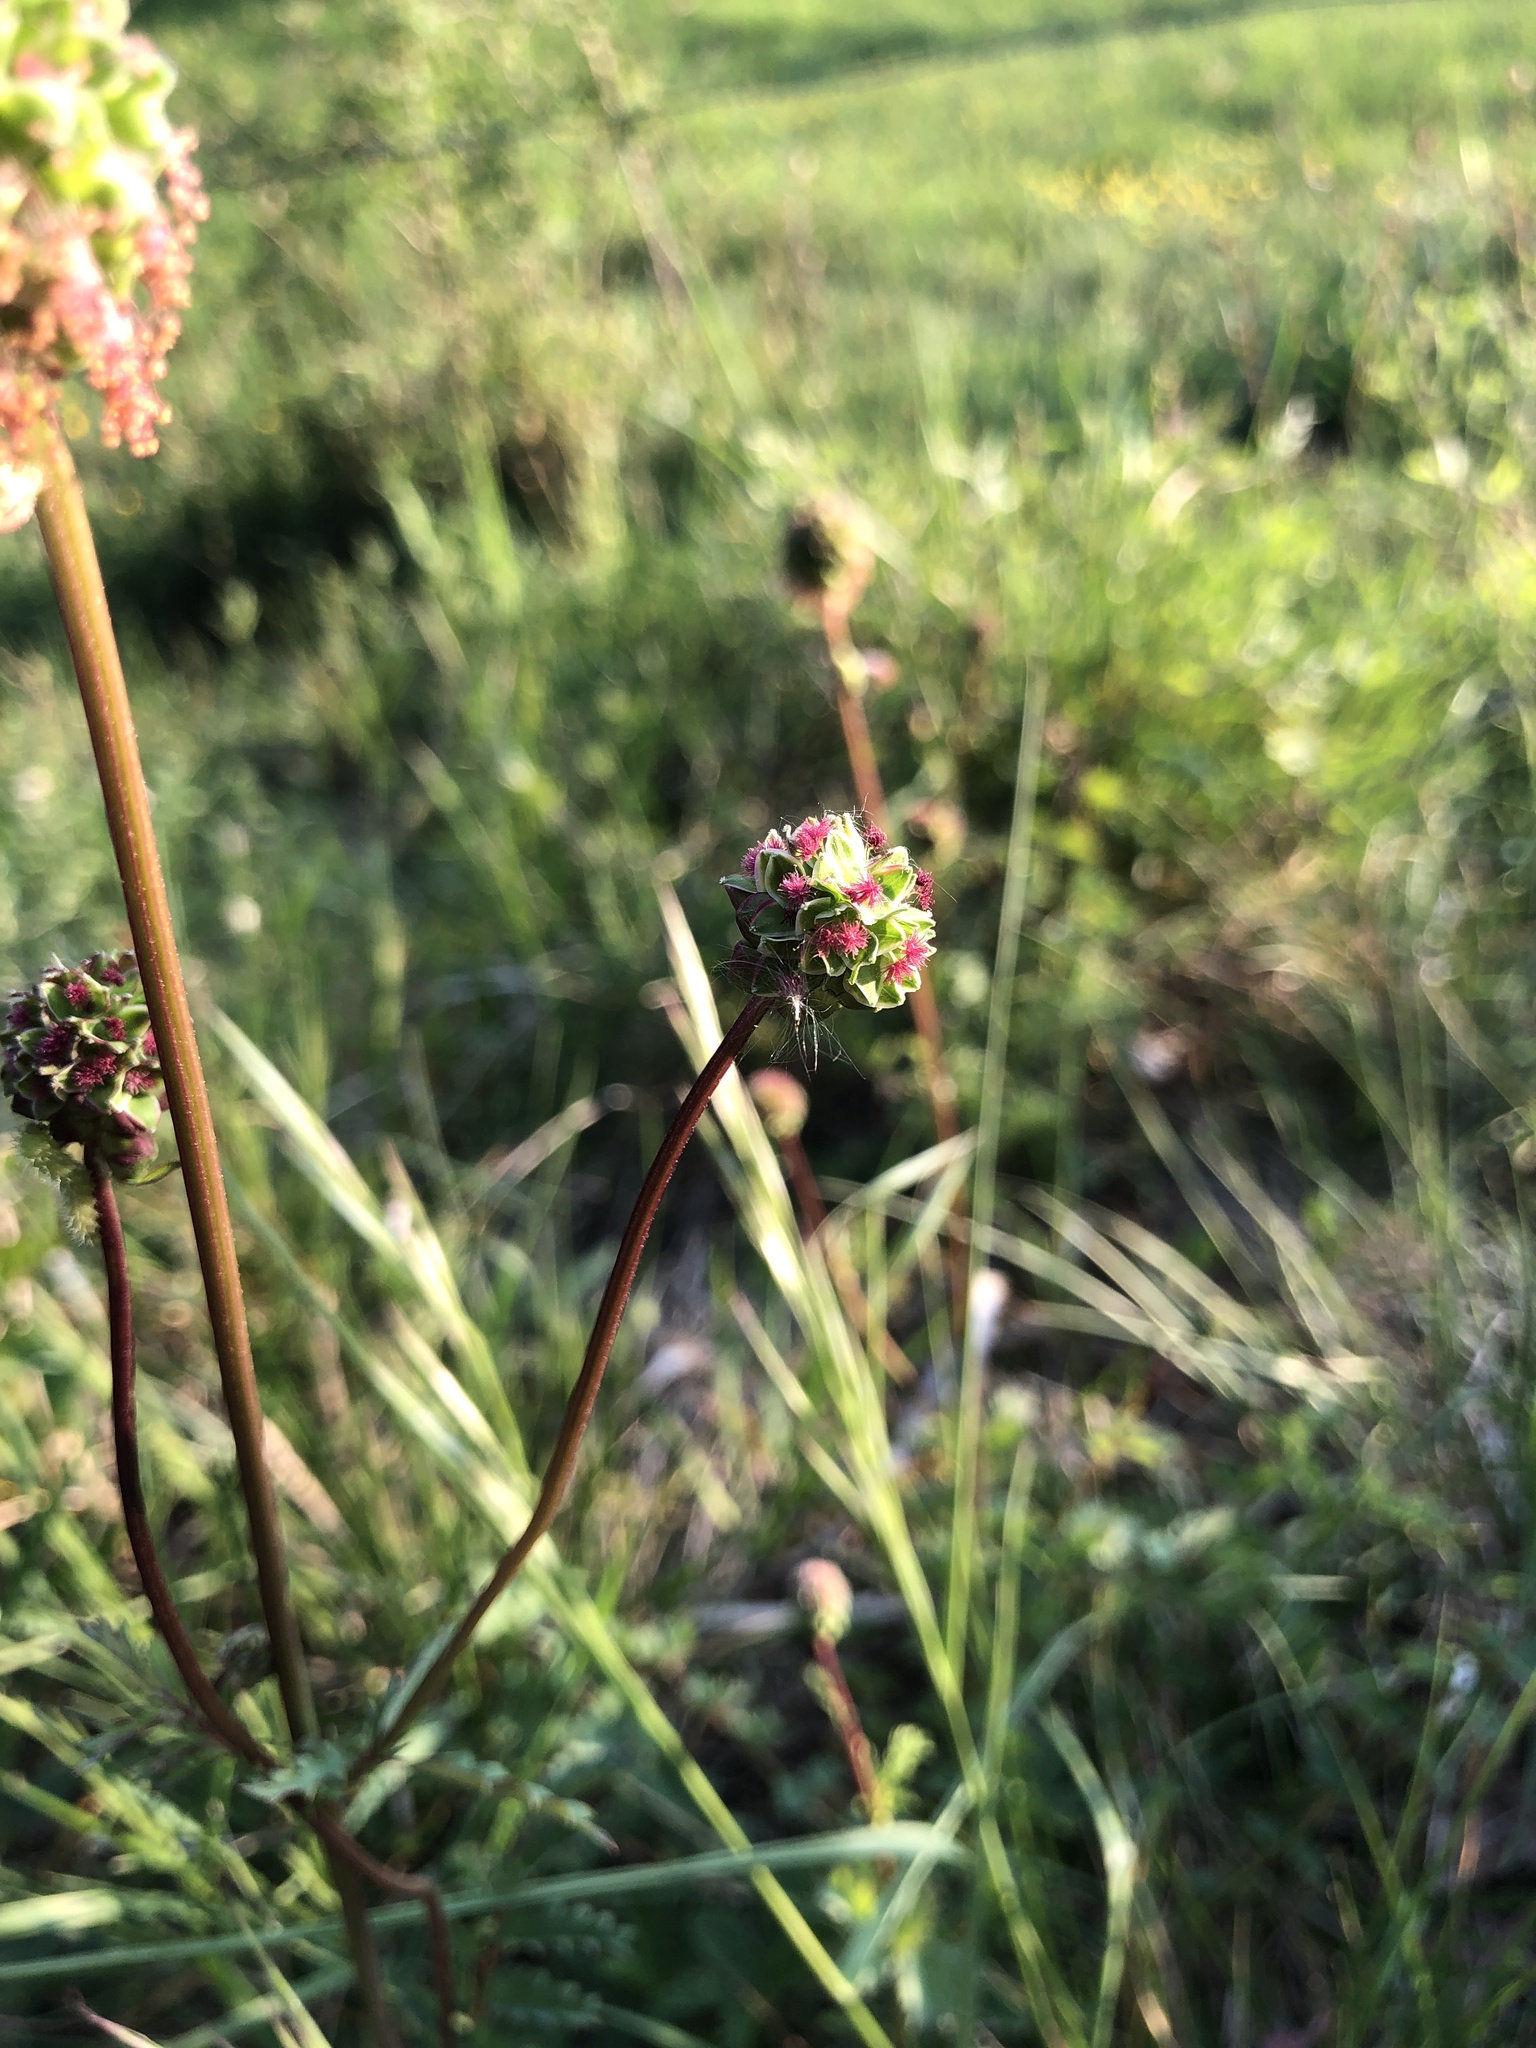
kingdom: Plantae
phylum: Tracheophyta
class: Magnoliopsida
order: Rosales
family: Rosaceae
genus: Poterium
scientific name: Poterium sanguisorba
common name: Salad burnet
